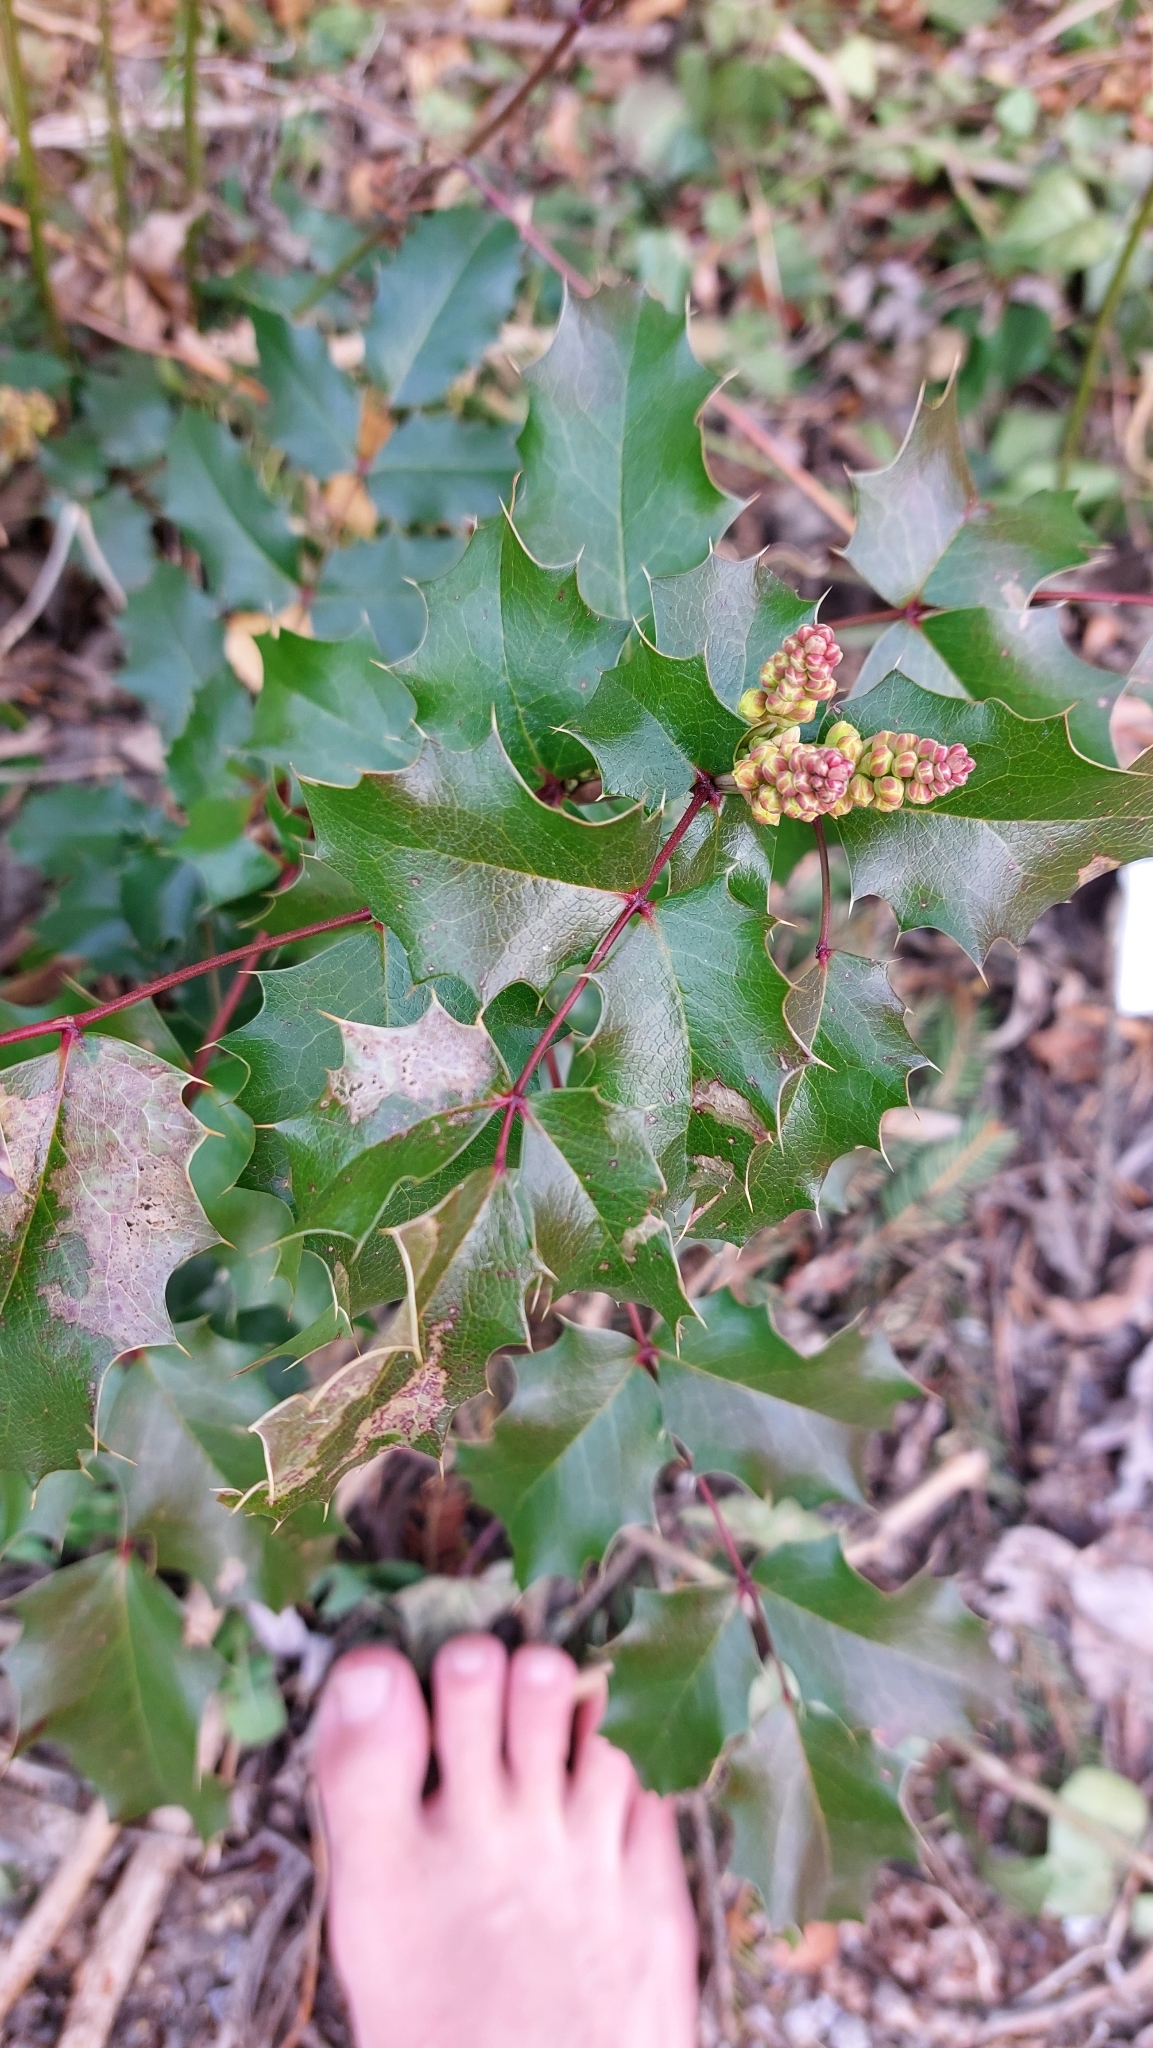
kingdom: Plantae
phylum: Tracheophyta
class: Magnoliopsida
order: Ranunculales
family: Berberidaceae
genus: Mahonia
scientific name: Mahonia aquifolium
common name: Oregon-grape
